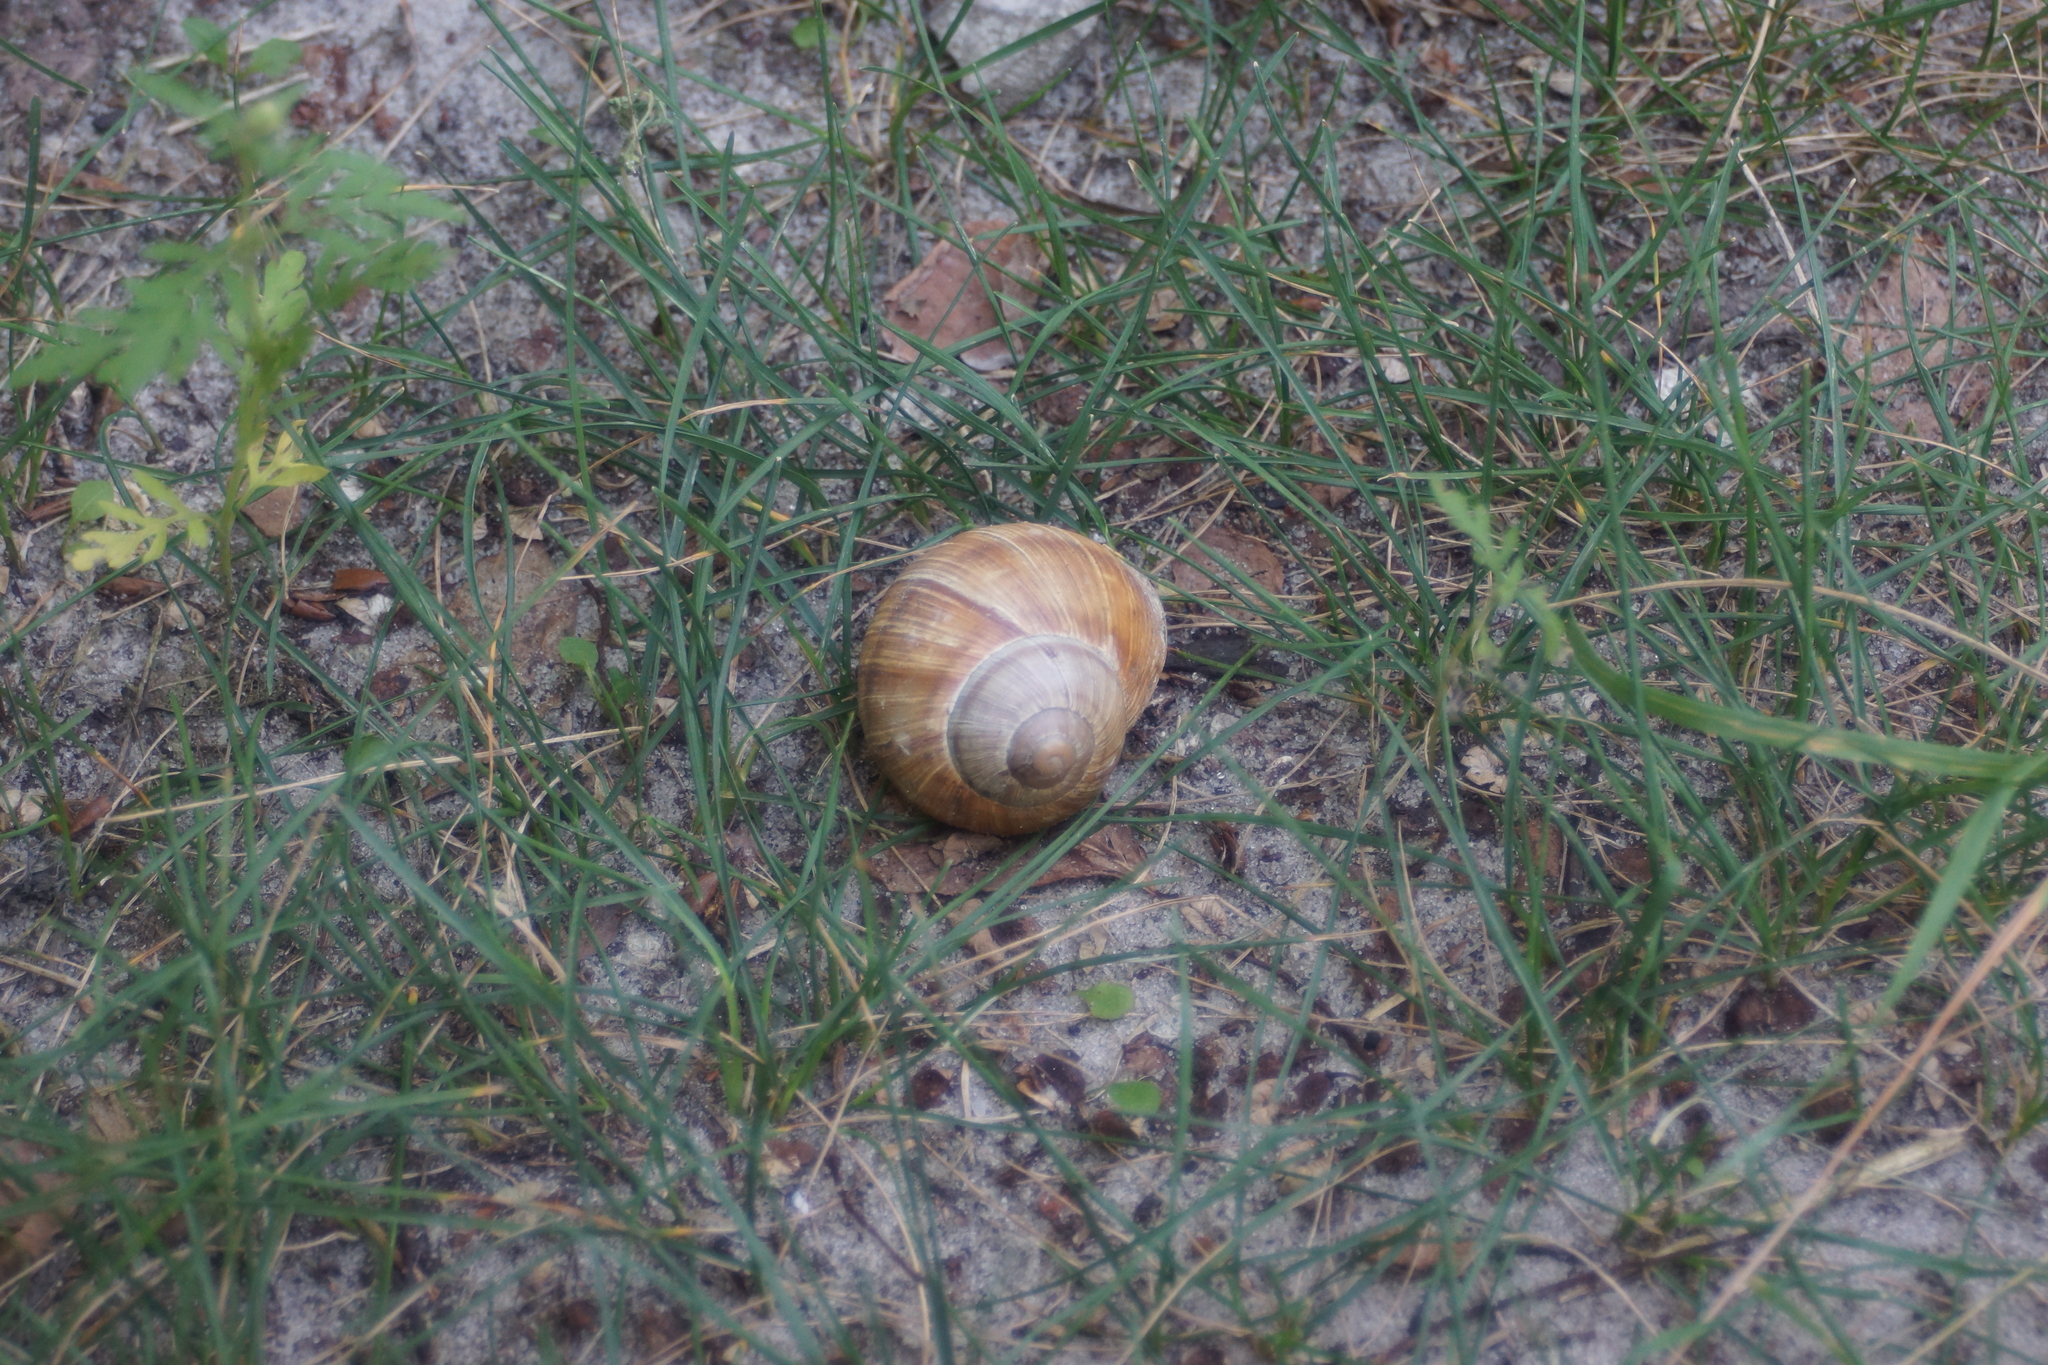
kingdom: Animalia
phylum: Mollusca
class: Gastropoda
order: Stylommatophora
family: Helicidae
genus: Helix
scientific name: Helix pomatia
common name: Roman snail
